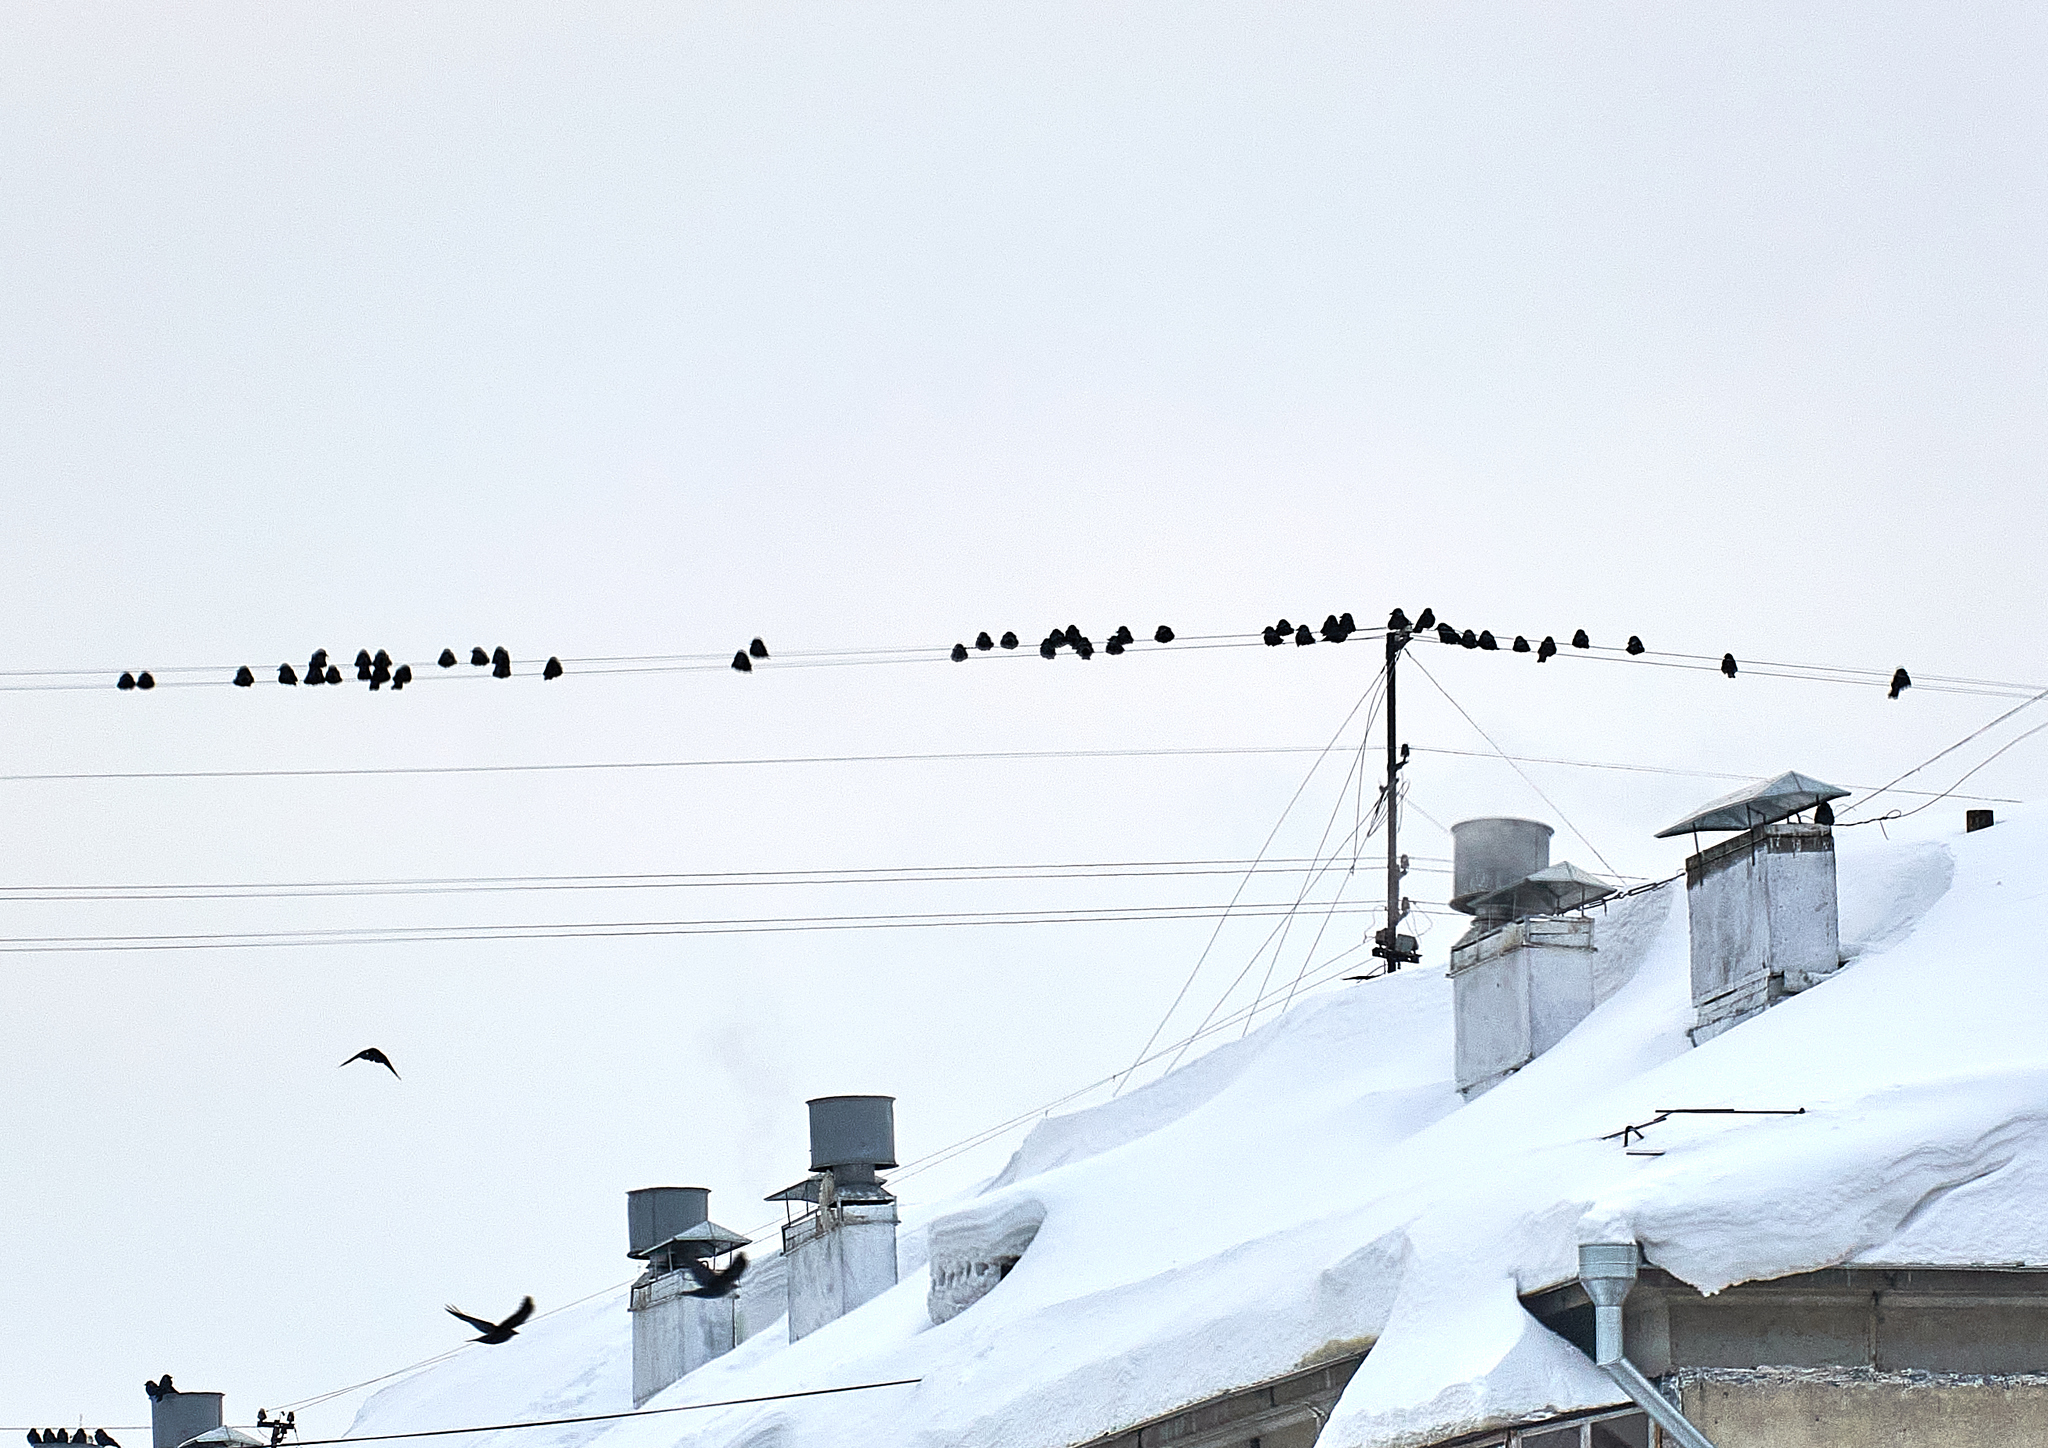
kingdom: Animalia
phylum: Chordata
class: Aves
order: Passeriformes
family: Corvidae
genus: Coloeus
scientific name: Coloeus monedula
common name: Western jackdaw
